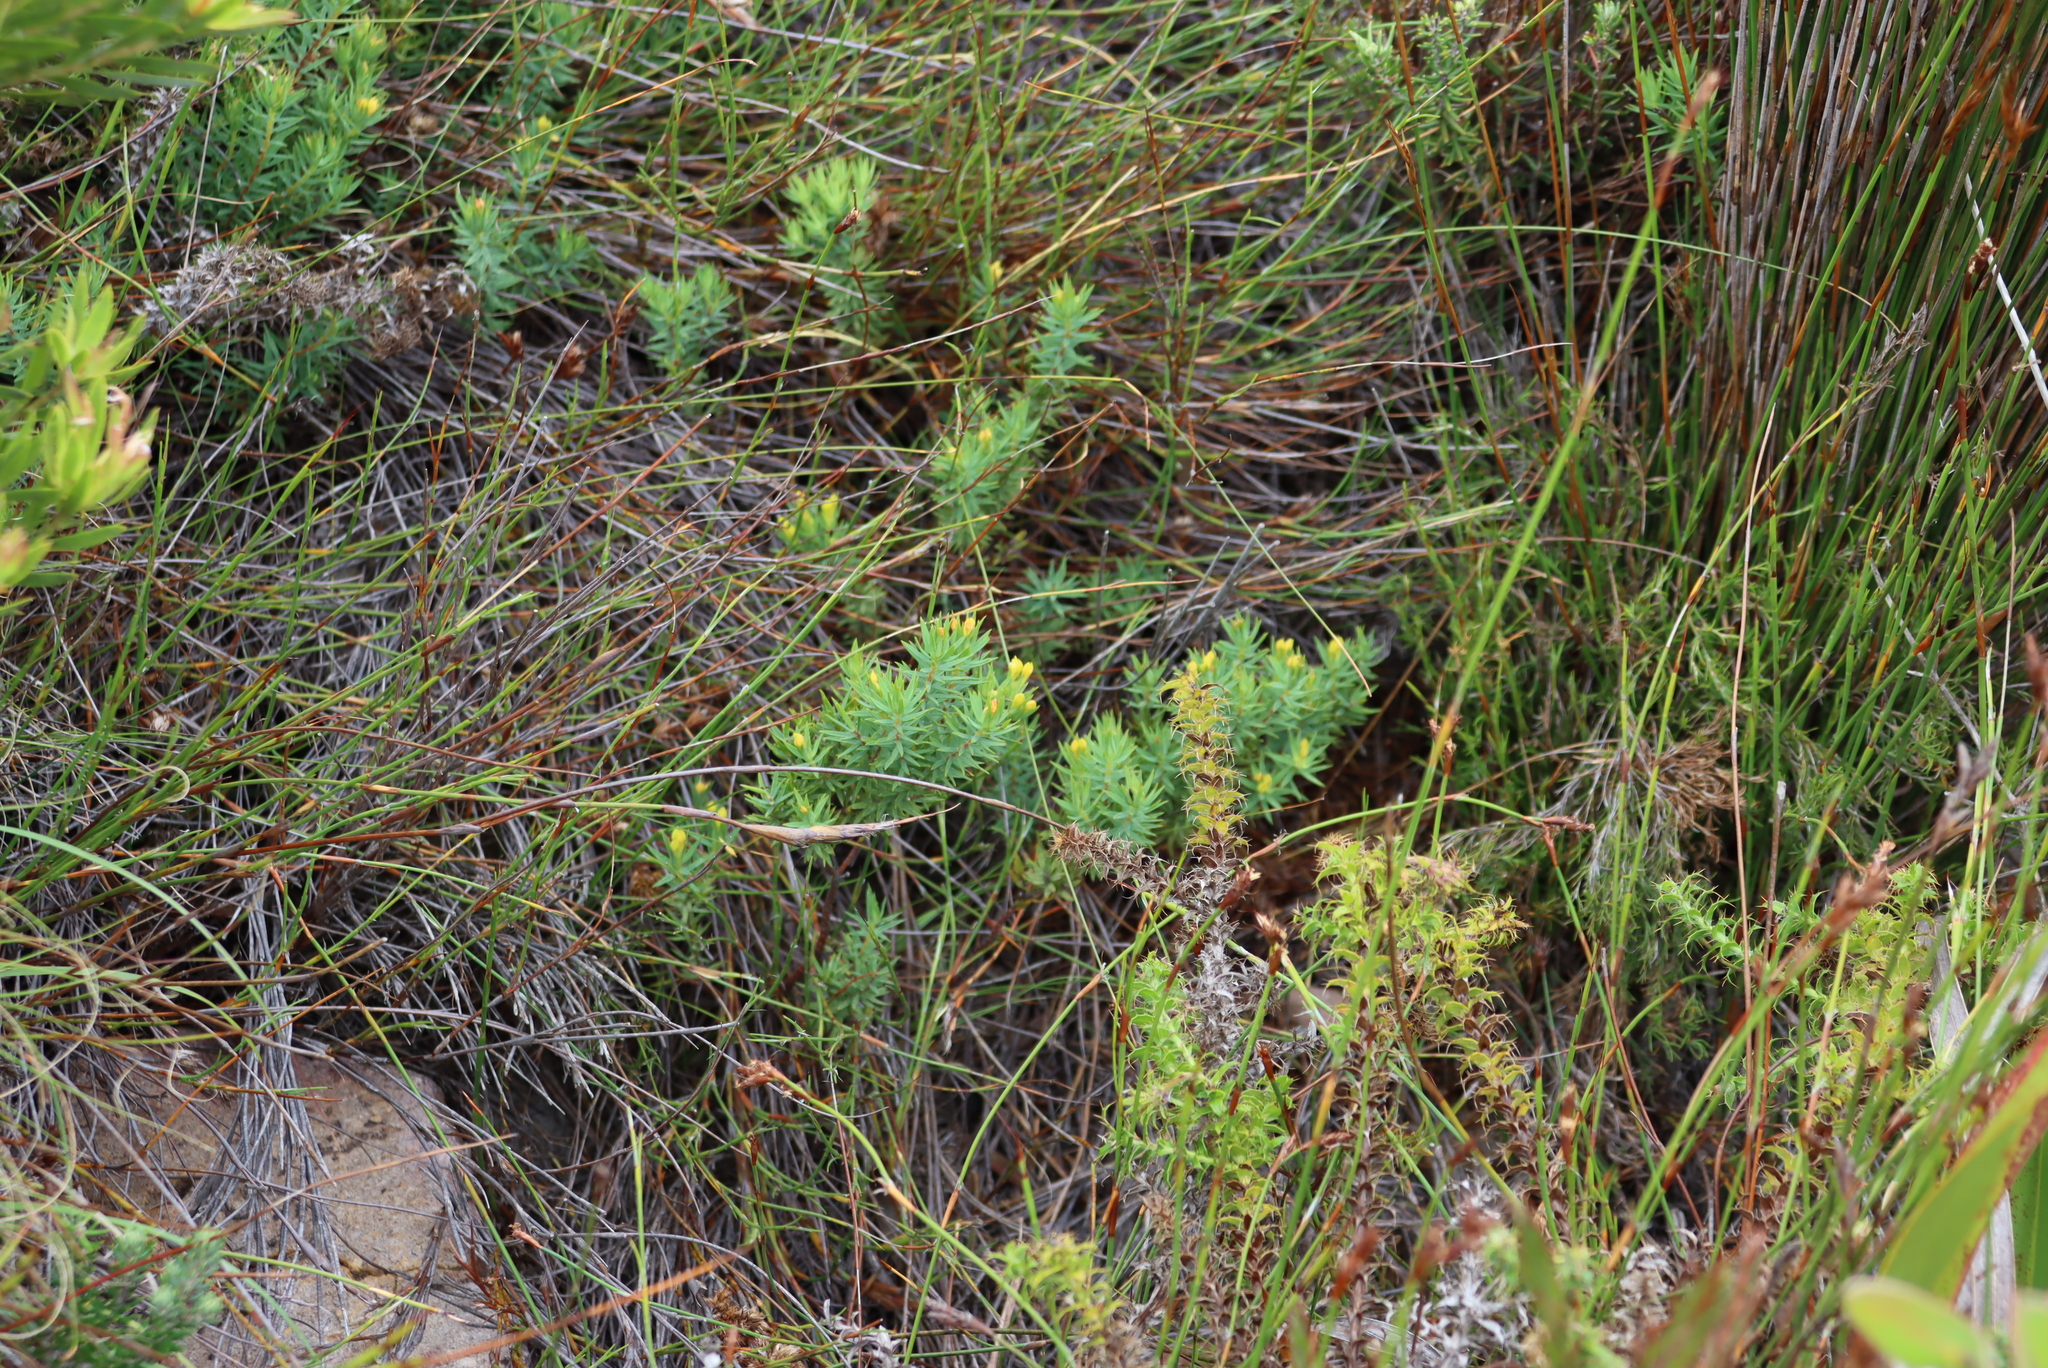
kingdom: Plantae
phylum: Tracheophyta
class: Magnoliopsida
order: Malvales
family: Thymelaeaceae
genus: Gnidia
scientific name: Gnidia juniperifolia
